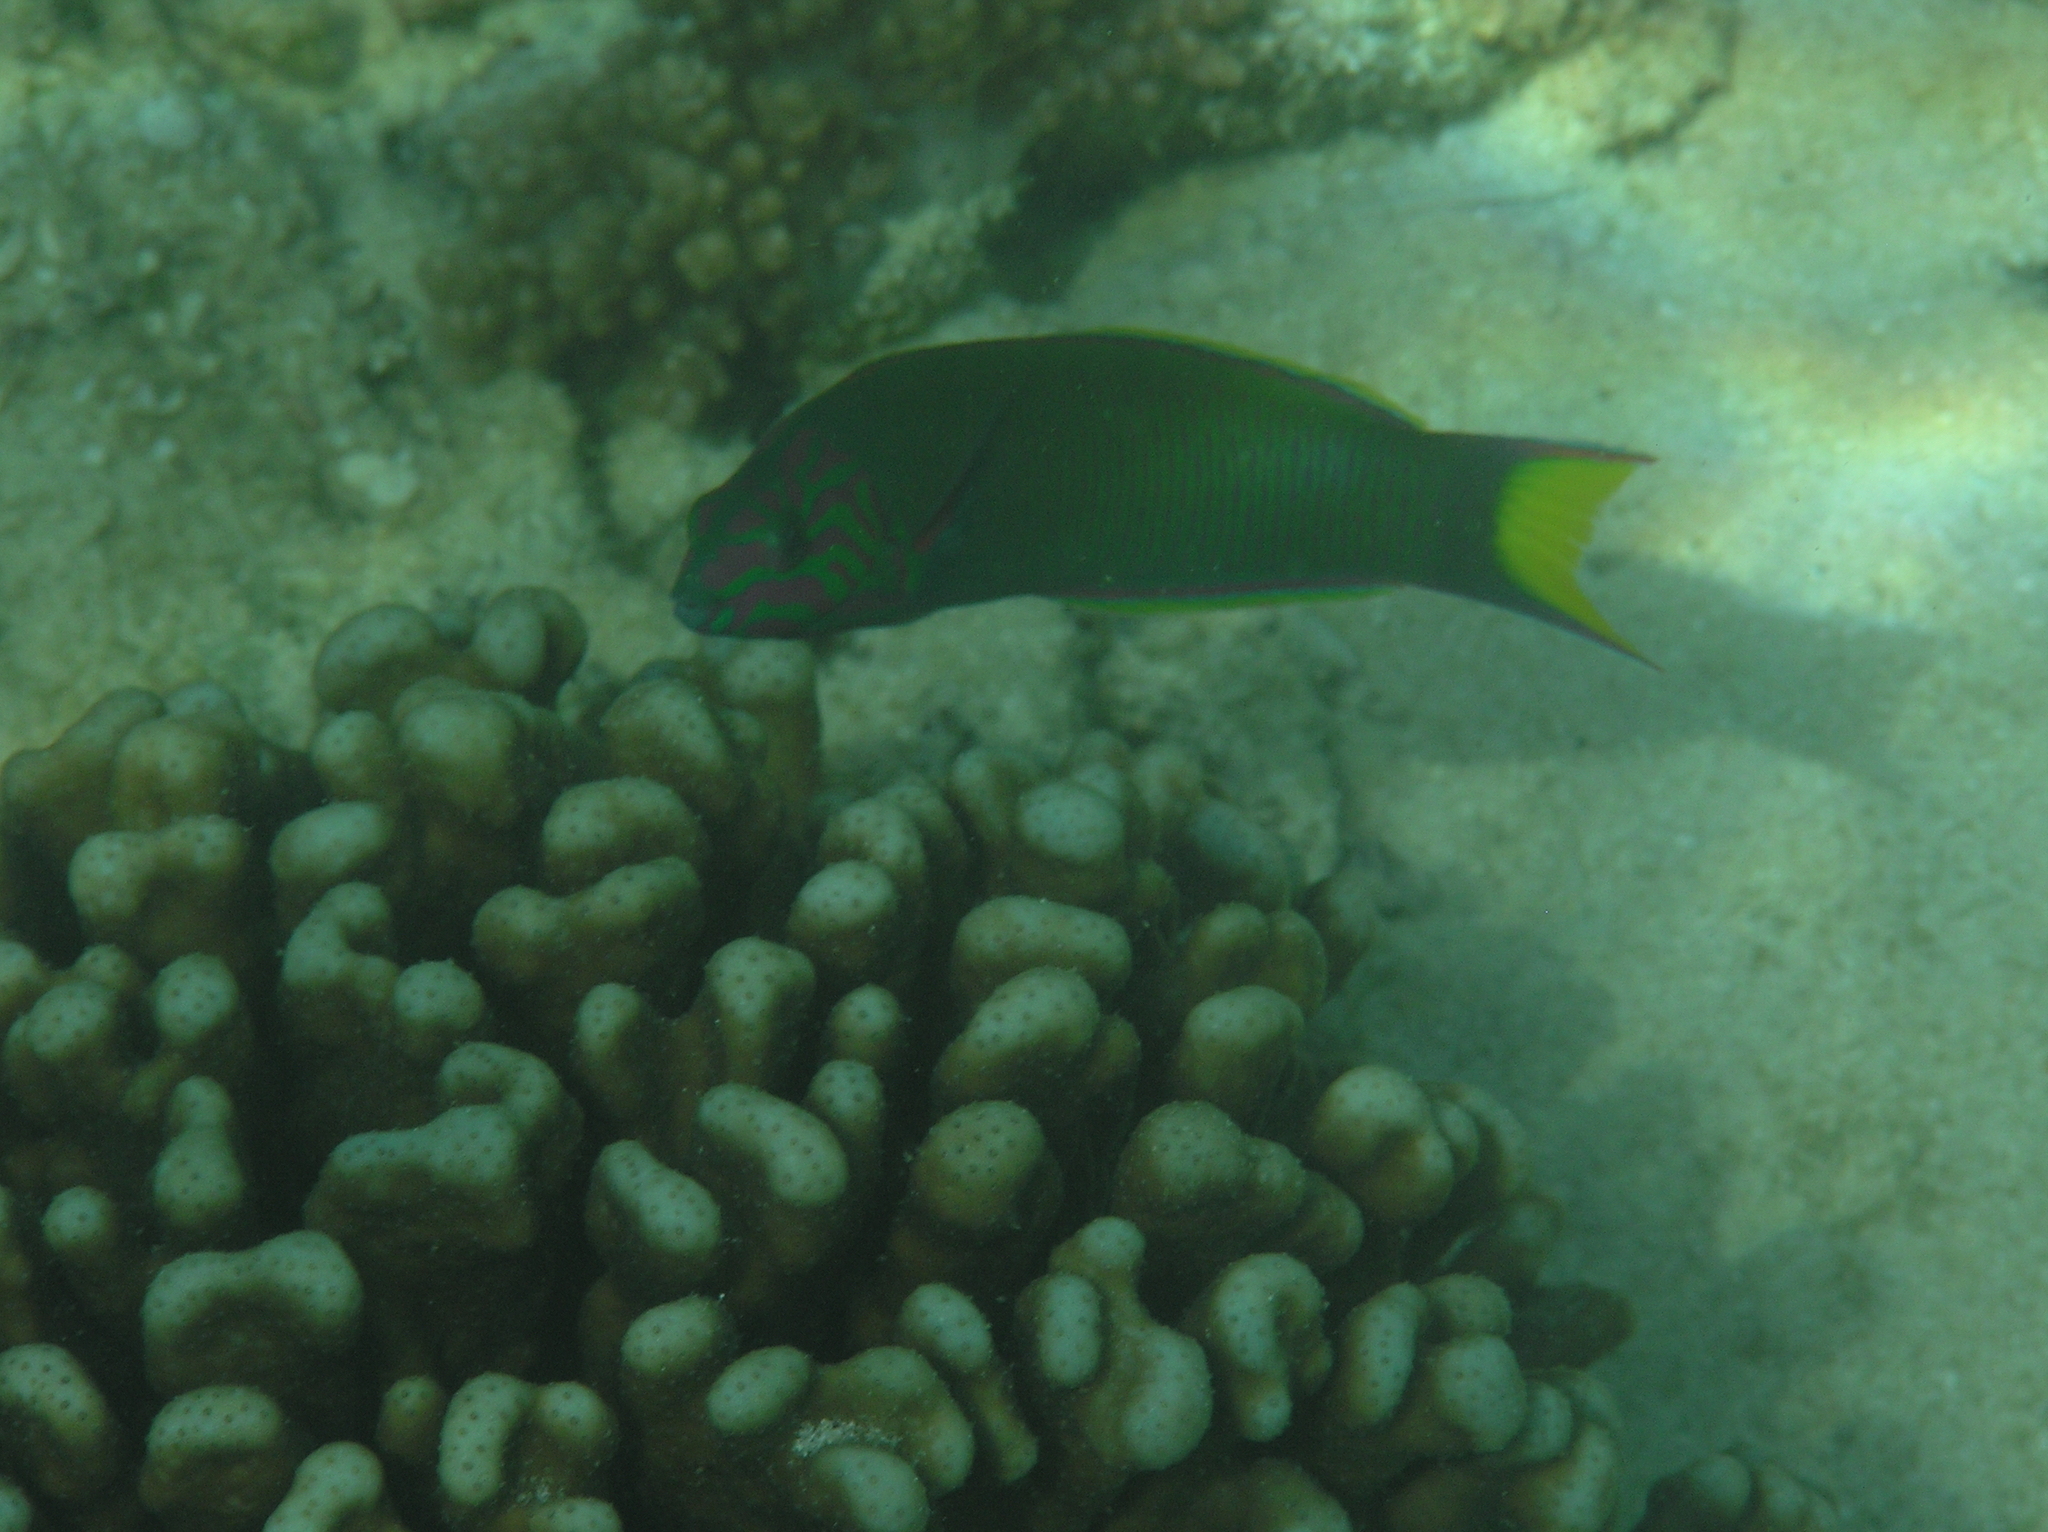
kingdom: Animalia
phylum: Chordata
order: Perciformes
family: Labridae
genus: Thalassoma
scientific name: Thalassoma lunare
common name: Blue wrasse
